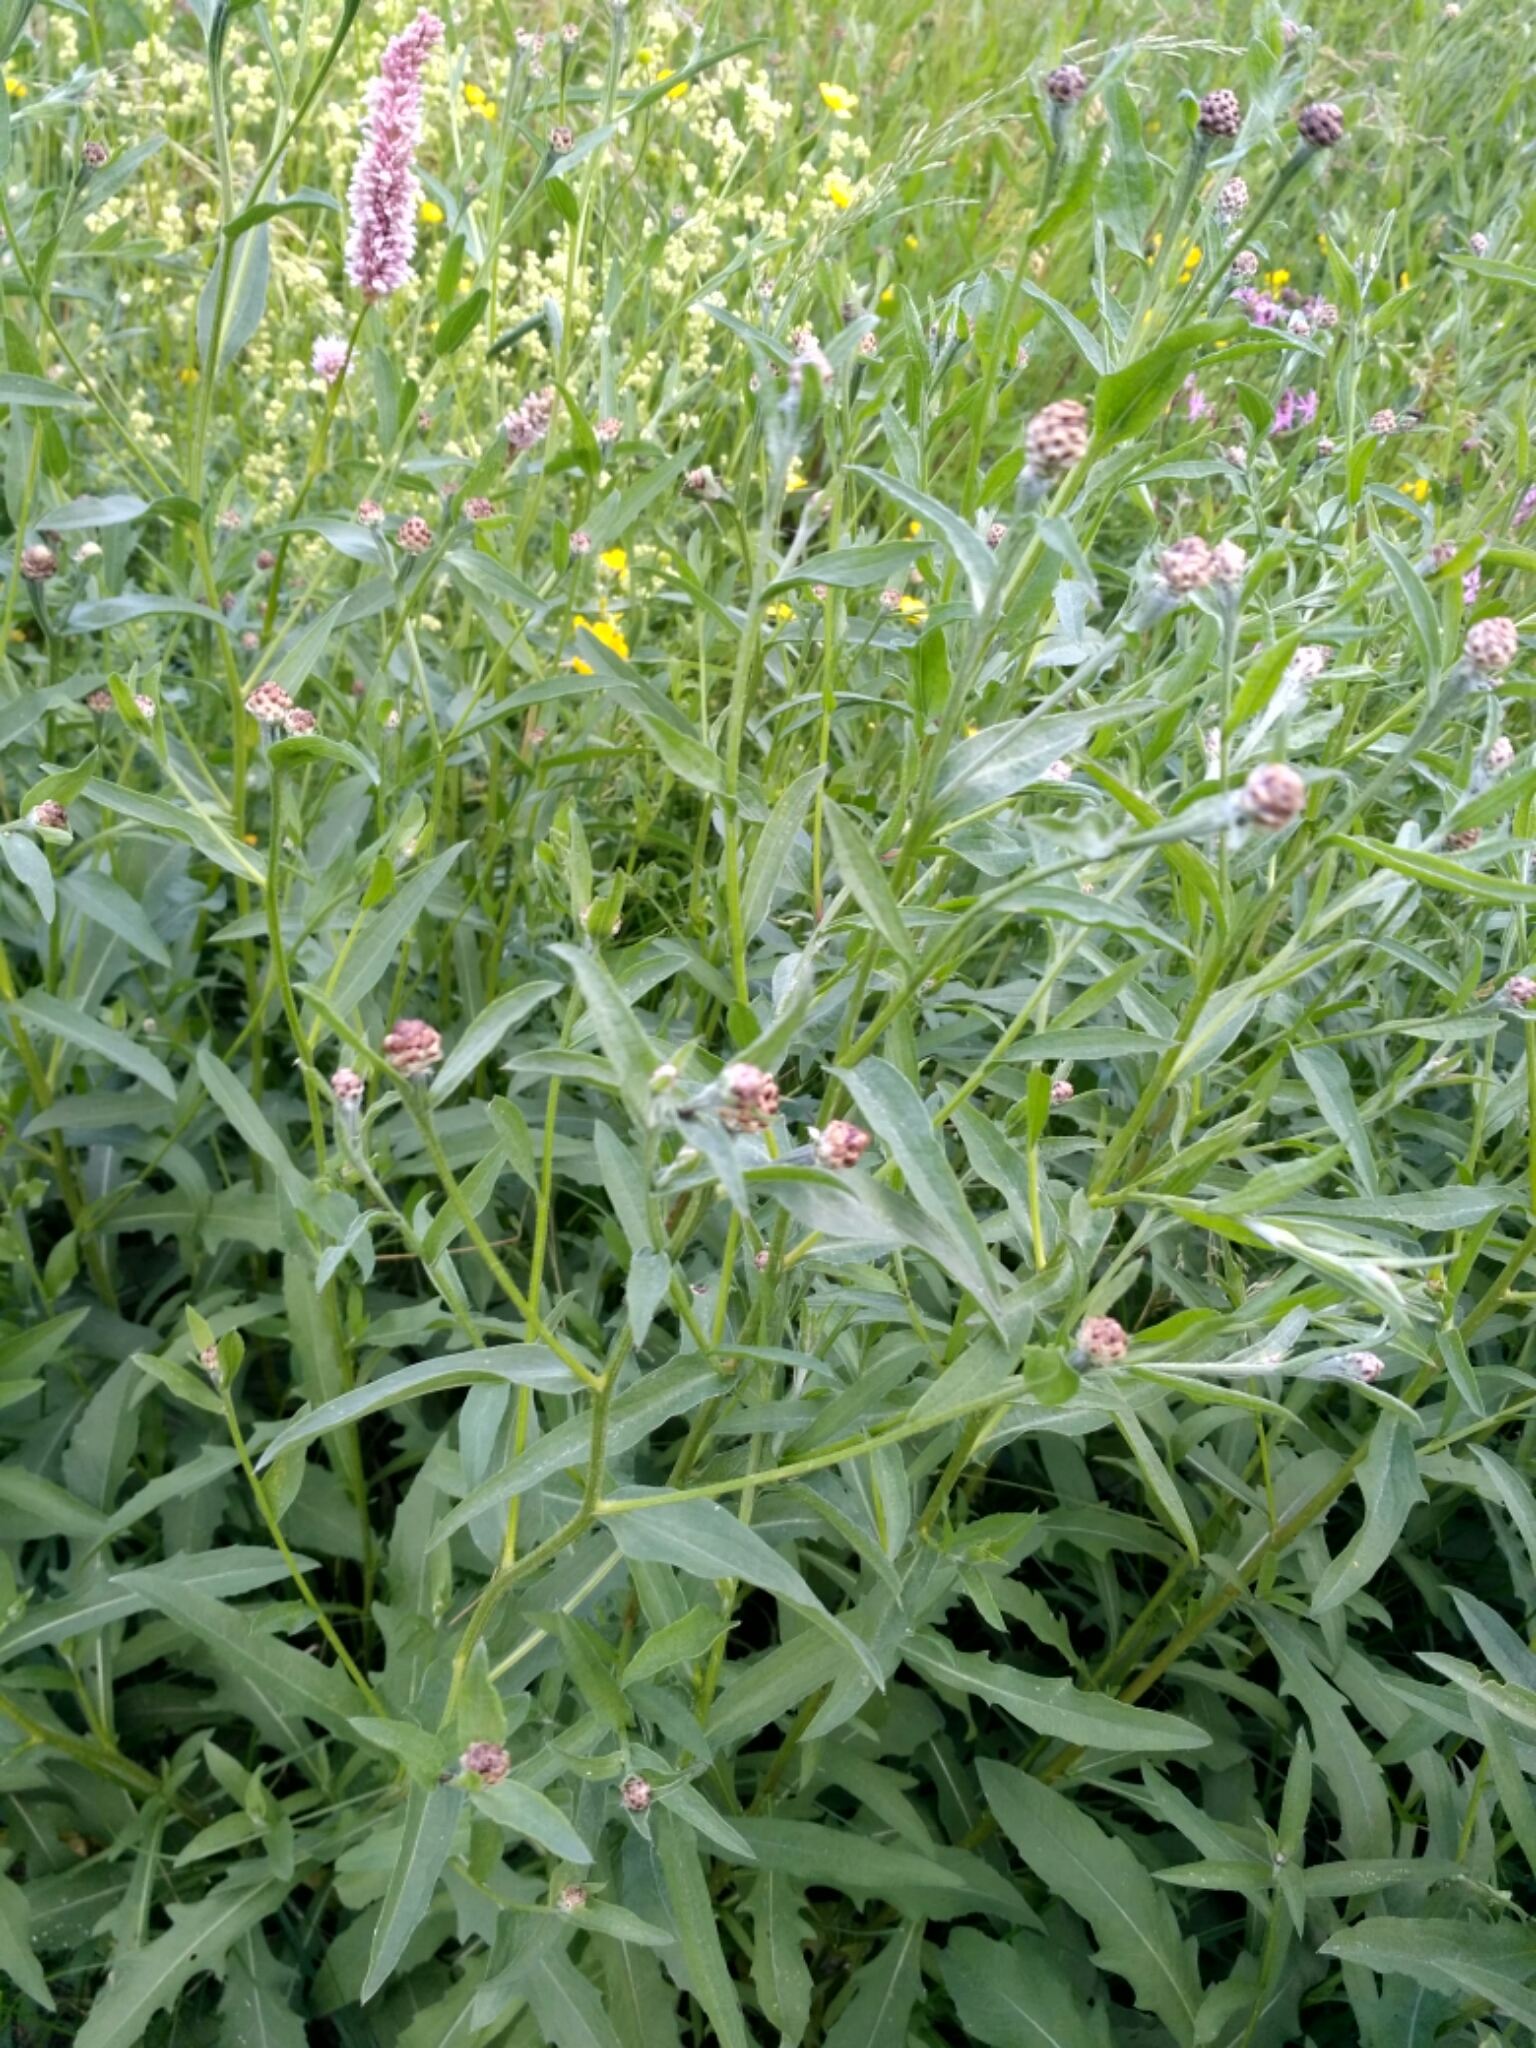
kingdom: Plantae
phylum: Tracheophyta
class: Magnoliopsida
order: Asterales
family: Asteraceae
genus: Centaurea
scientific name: Centaurea jacea
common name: Brown knapweed
